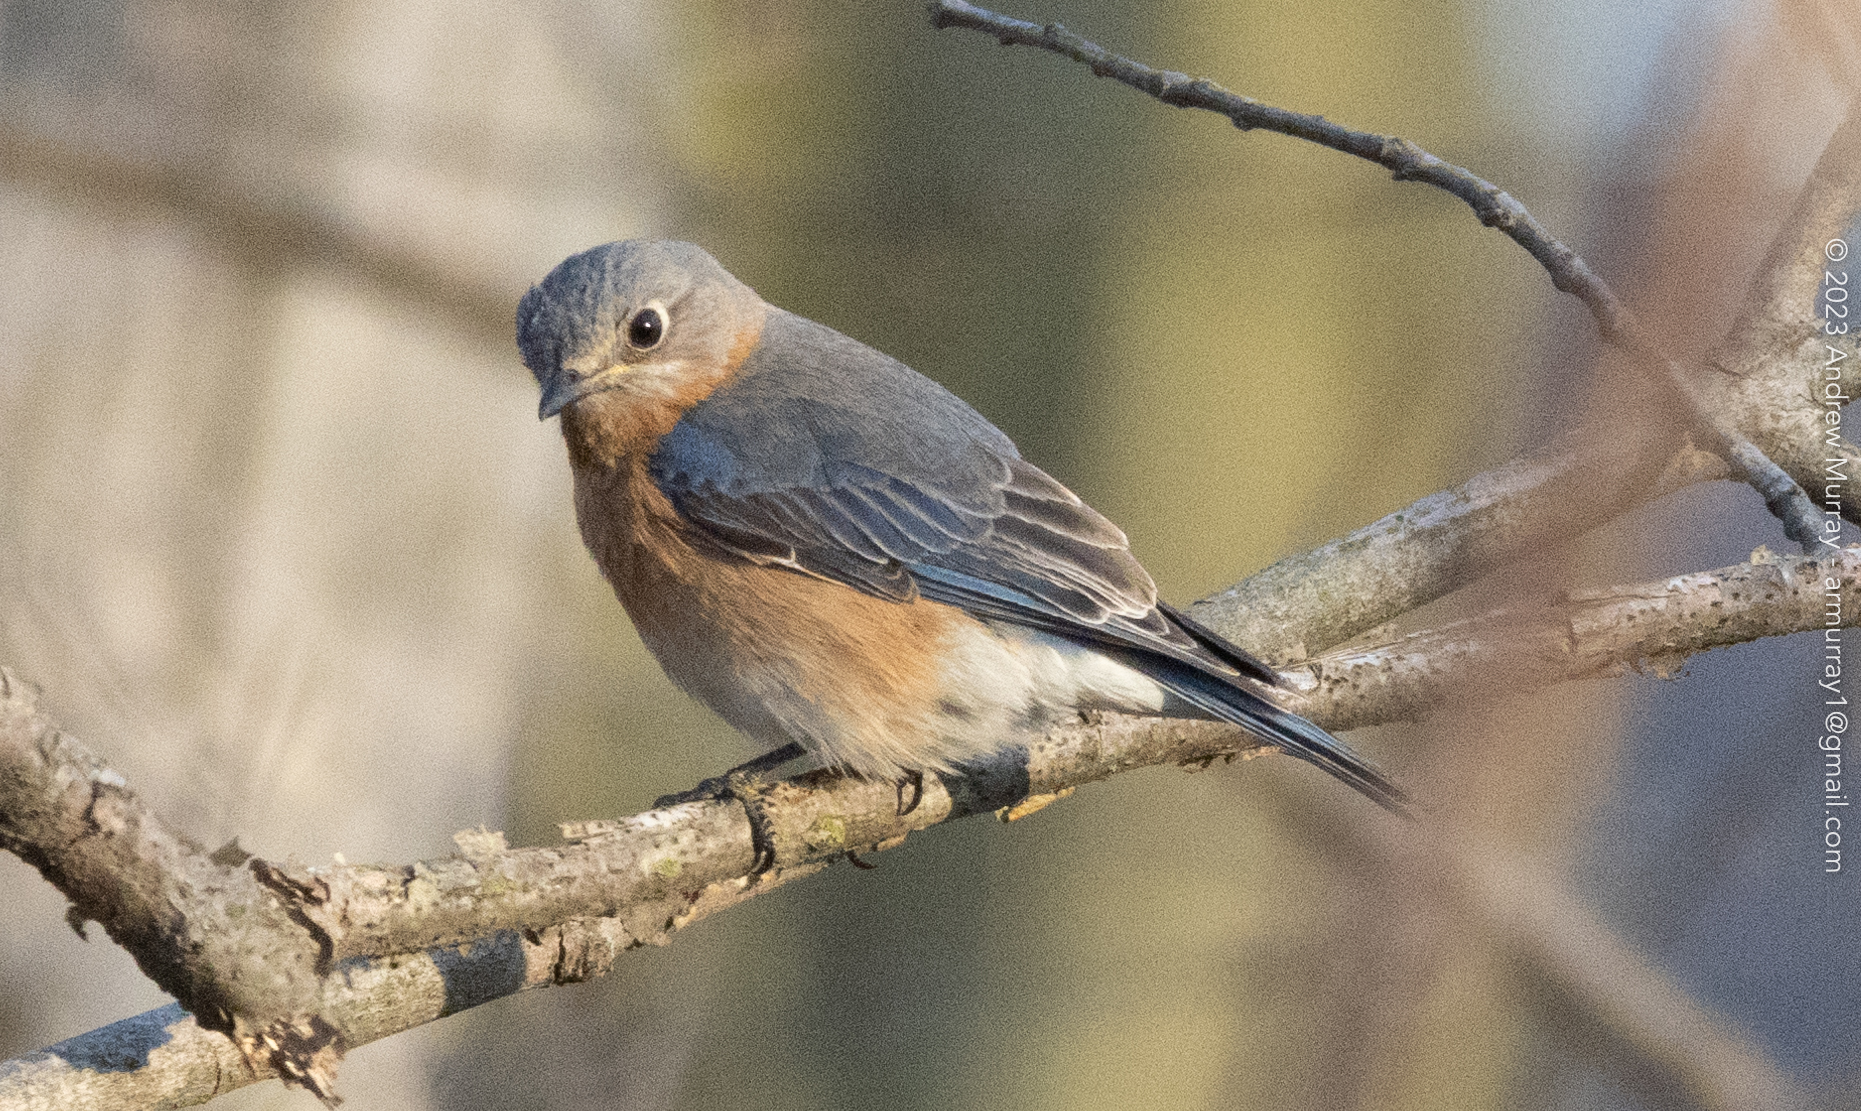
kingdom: Animalia
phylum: Chordata
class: Aves
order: Passeriformes
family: Turdidae
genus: Sialia
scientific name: Sialia sialis
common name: Eastern bluebird
